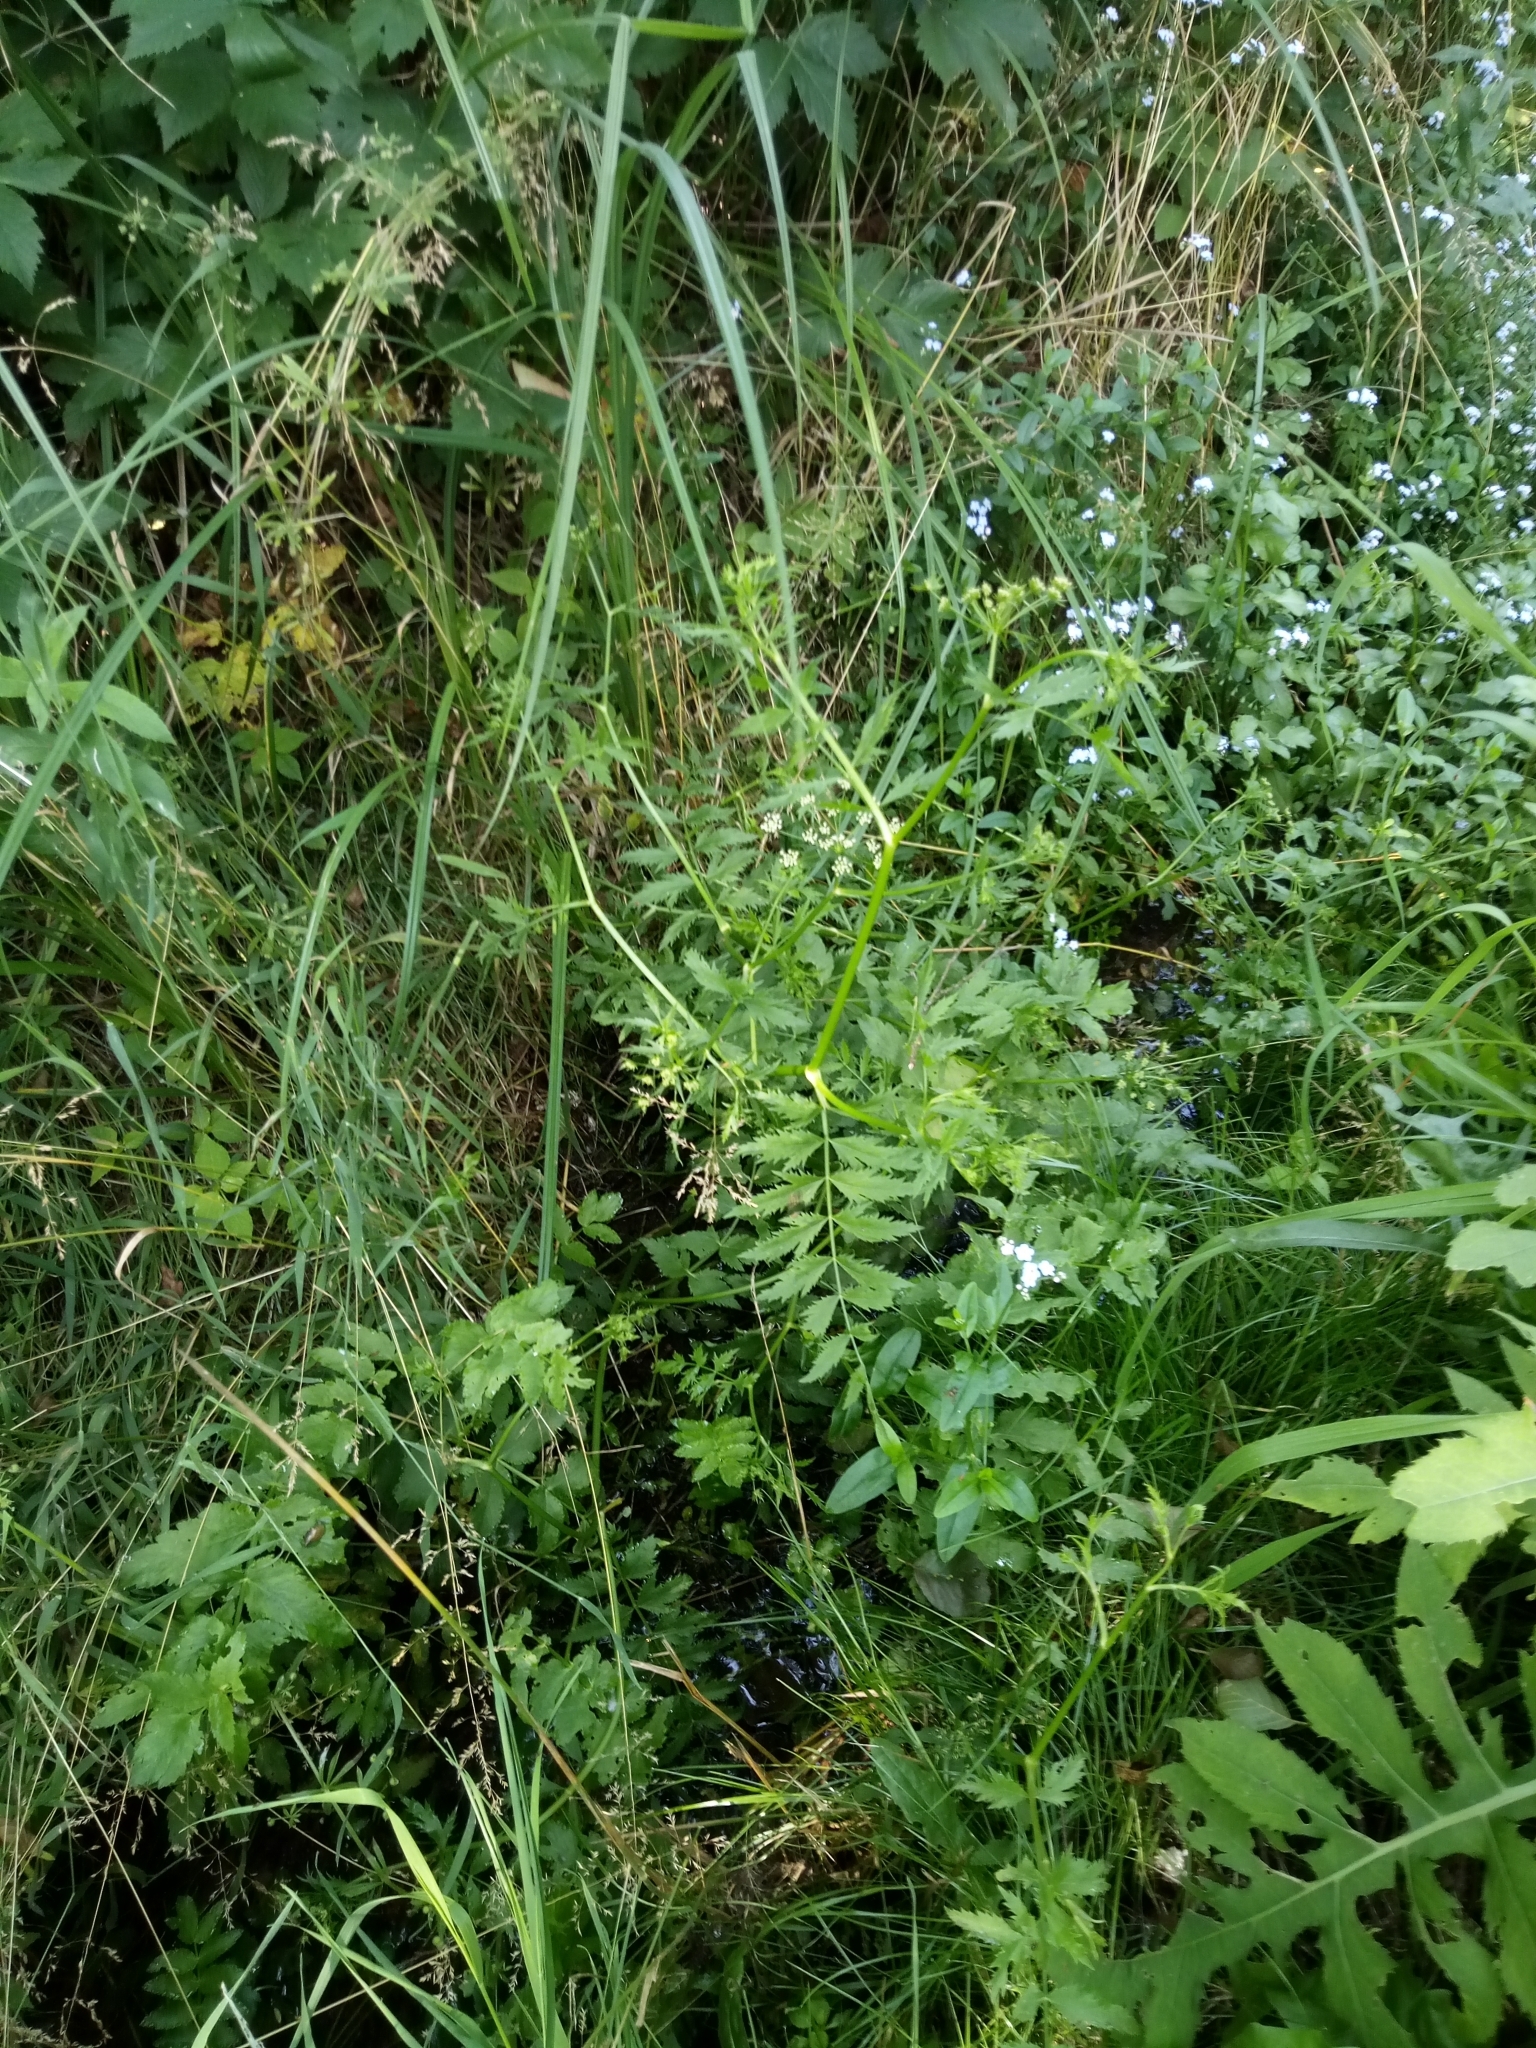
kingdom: Plantae
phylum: Tracheophyta
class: Magnoliopsida
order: Apiales
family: Apiaceae
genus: Berula
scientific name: Berula erecta
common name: Lesser water-parsnip
